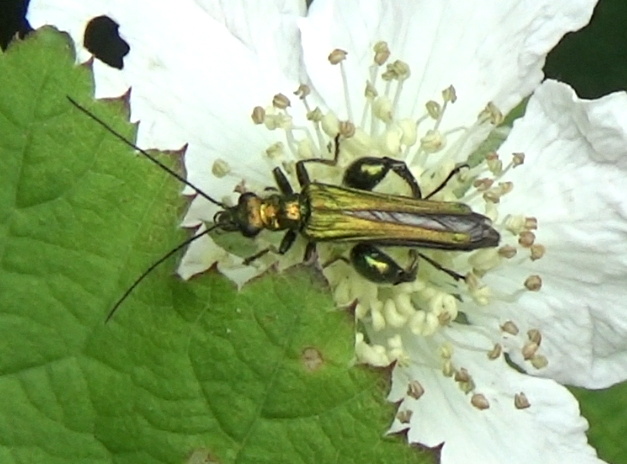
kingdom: Animalia
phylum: Arthropoda
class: Insecta
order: Coleoptera
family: Oedemeridae
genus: Oedemera
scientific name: Oedemera nobilis
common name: Swollen-thighed beetle
